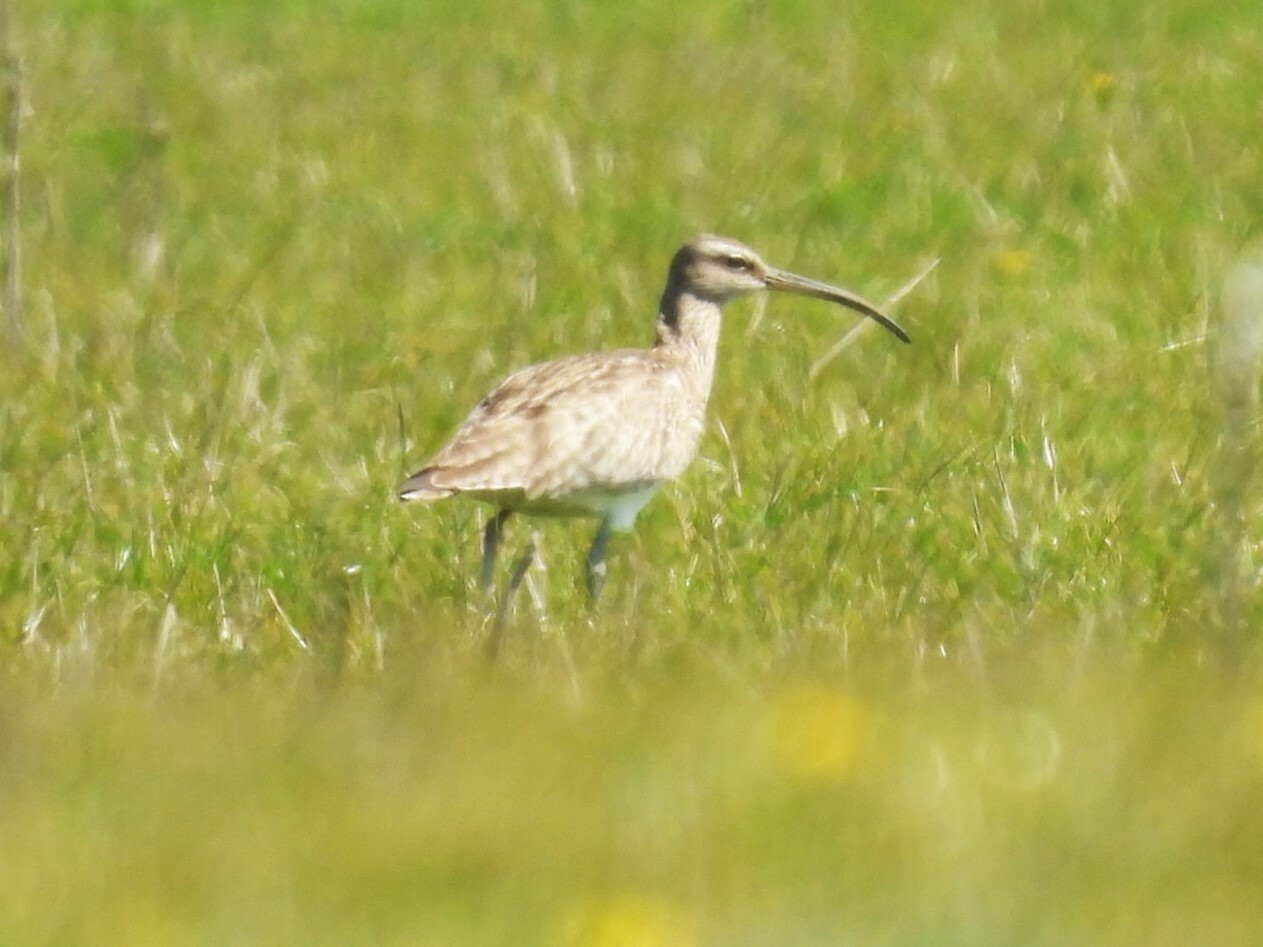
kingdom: Animalia
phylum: Chordata
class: Aves
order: Charadriiformes
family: Scolopacidae
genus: Numenius
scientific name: Numenius phaeopus
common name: Whimbrel
